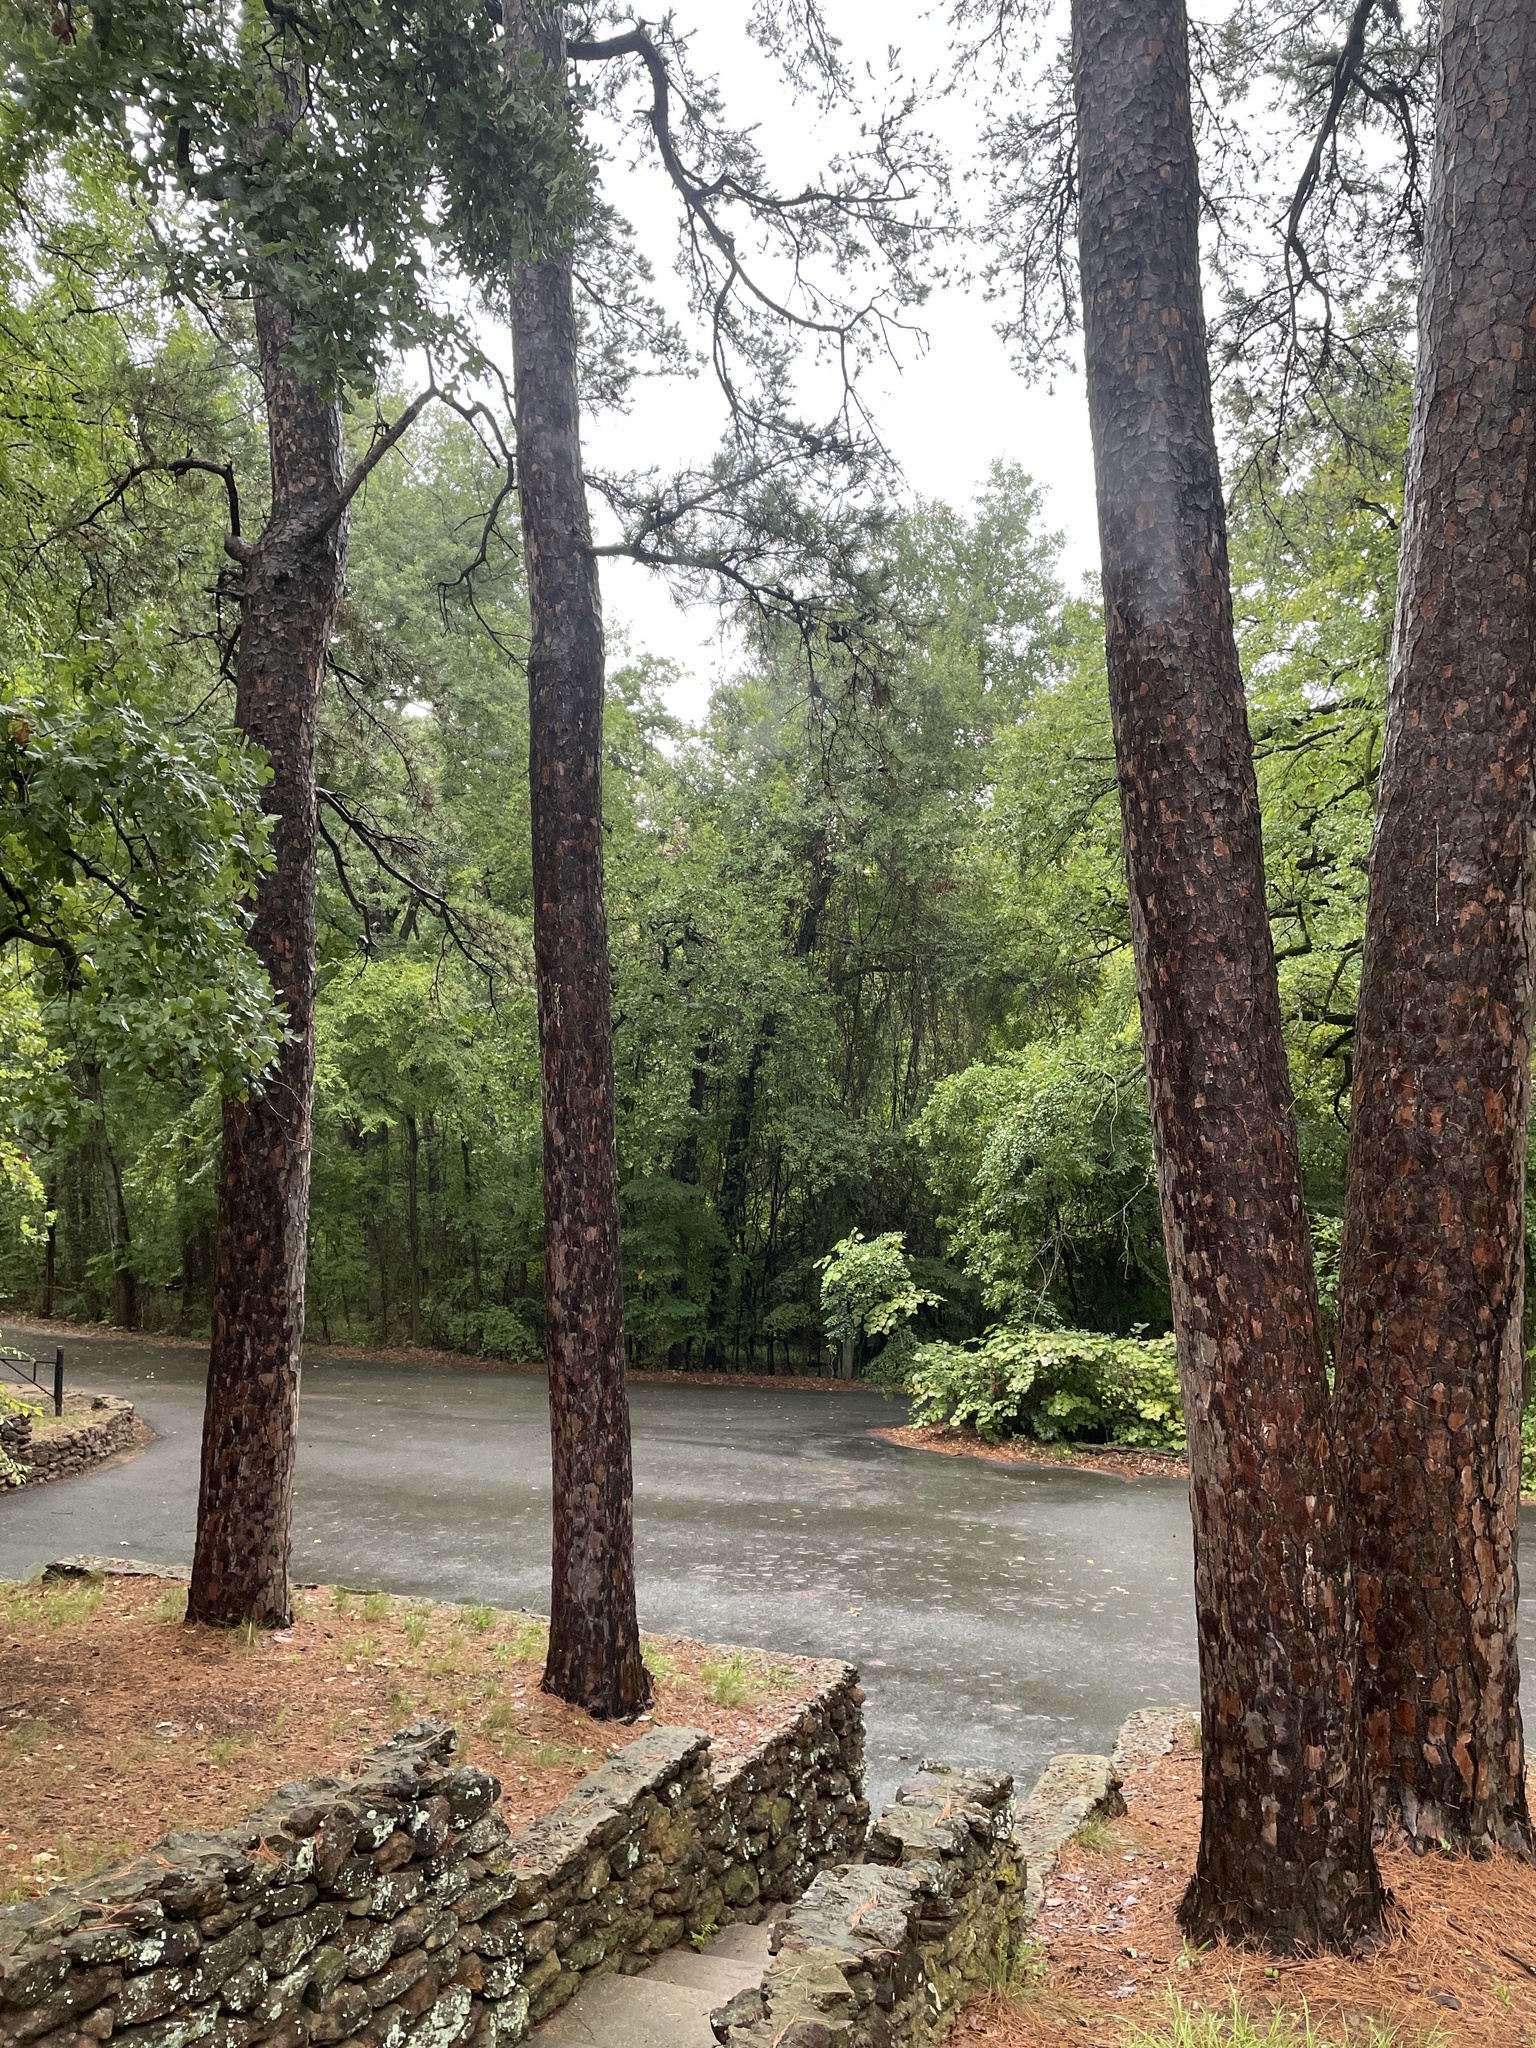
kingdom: Animalia
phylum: Chordata
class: Aves
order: Passeriformes
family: Corvidae
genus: Cyanocitta
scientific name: Cyanocitta cristata
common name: Blue jay
